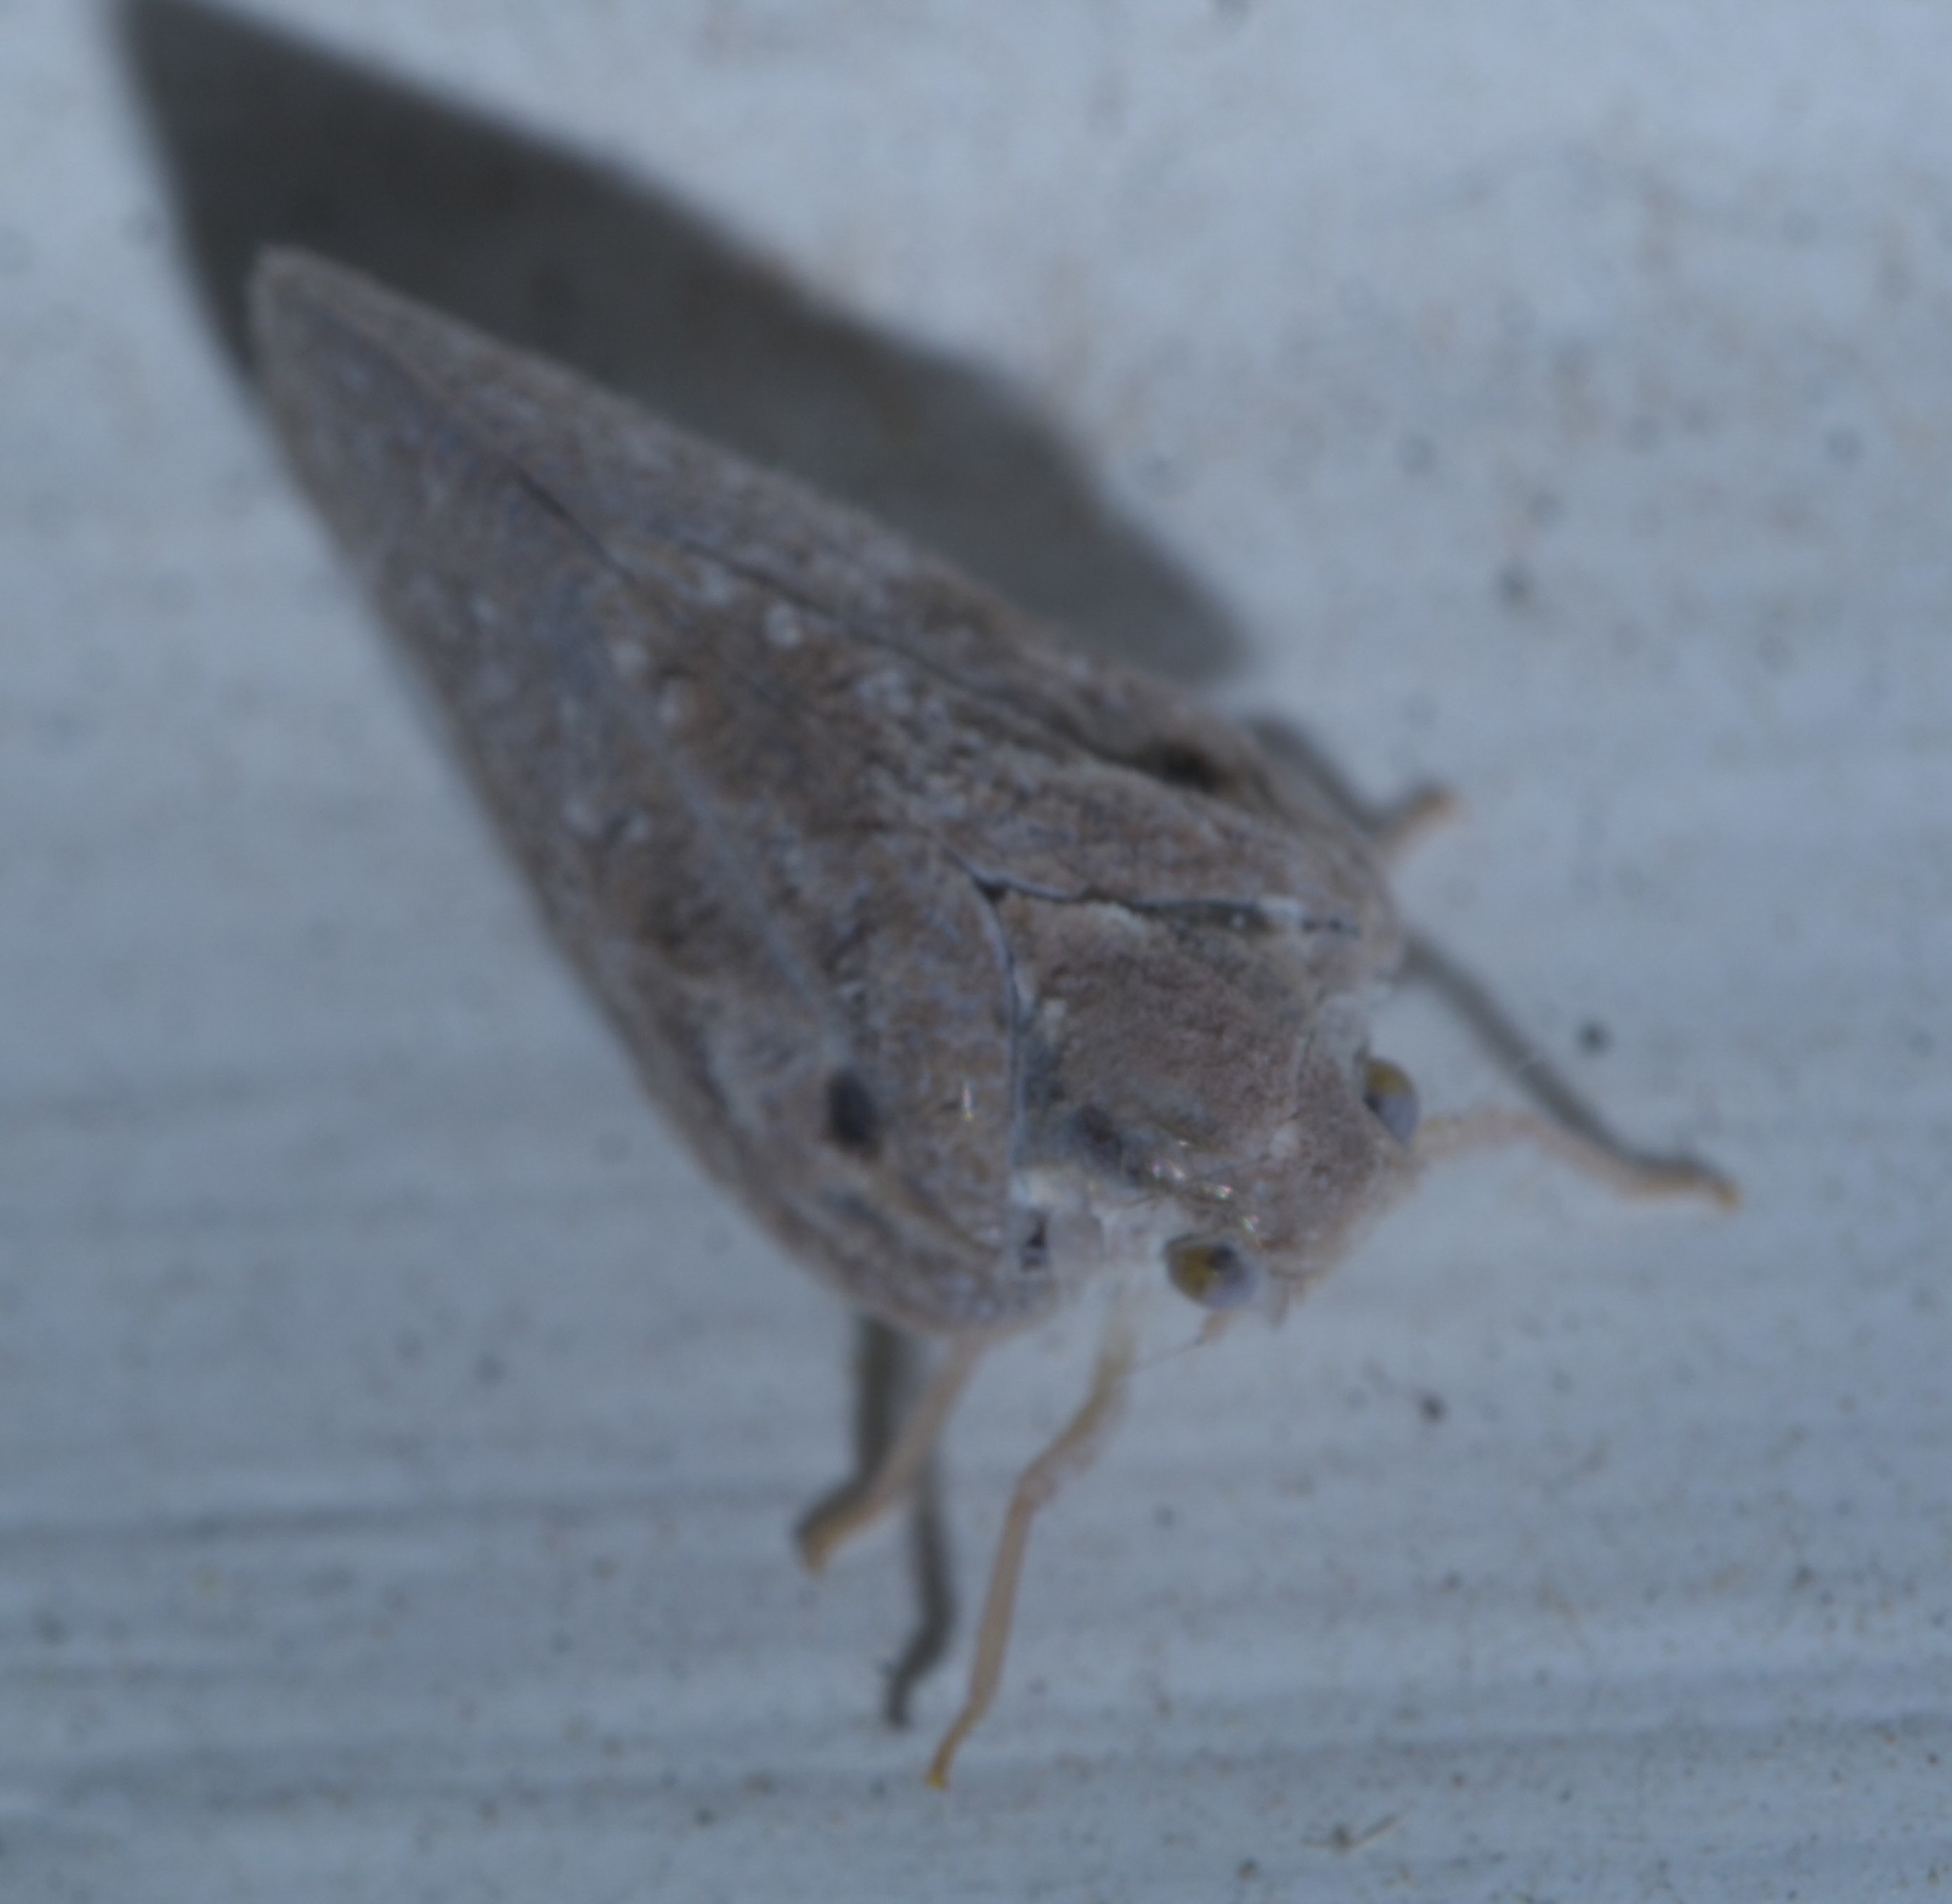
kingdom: Animalia
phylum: Arthropoda
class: Insecta
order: Hemiptera
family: Flatidae
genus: Metcalfa
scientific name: Metcalfa pruinosa
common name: Citrus flatid planthopper
